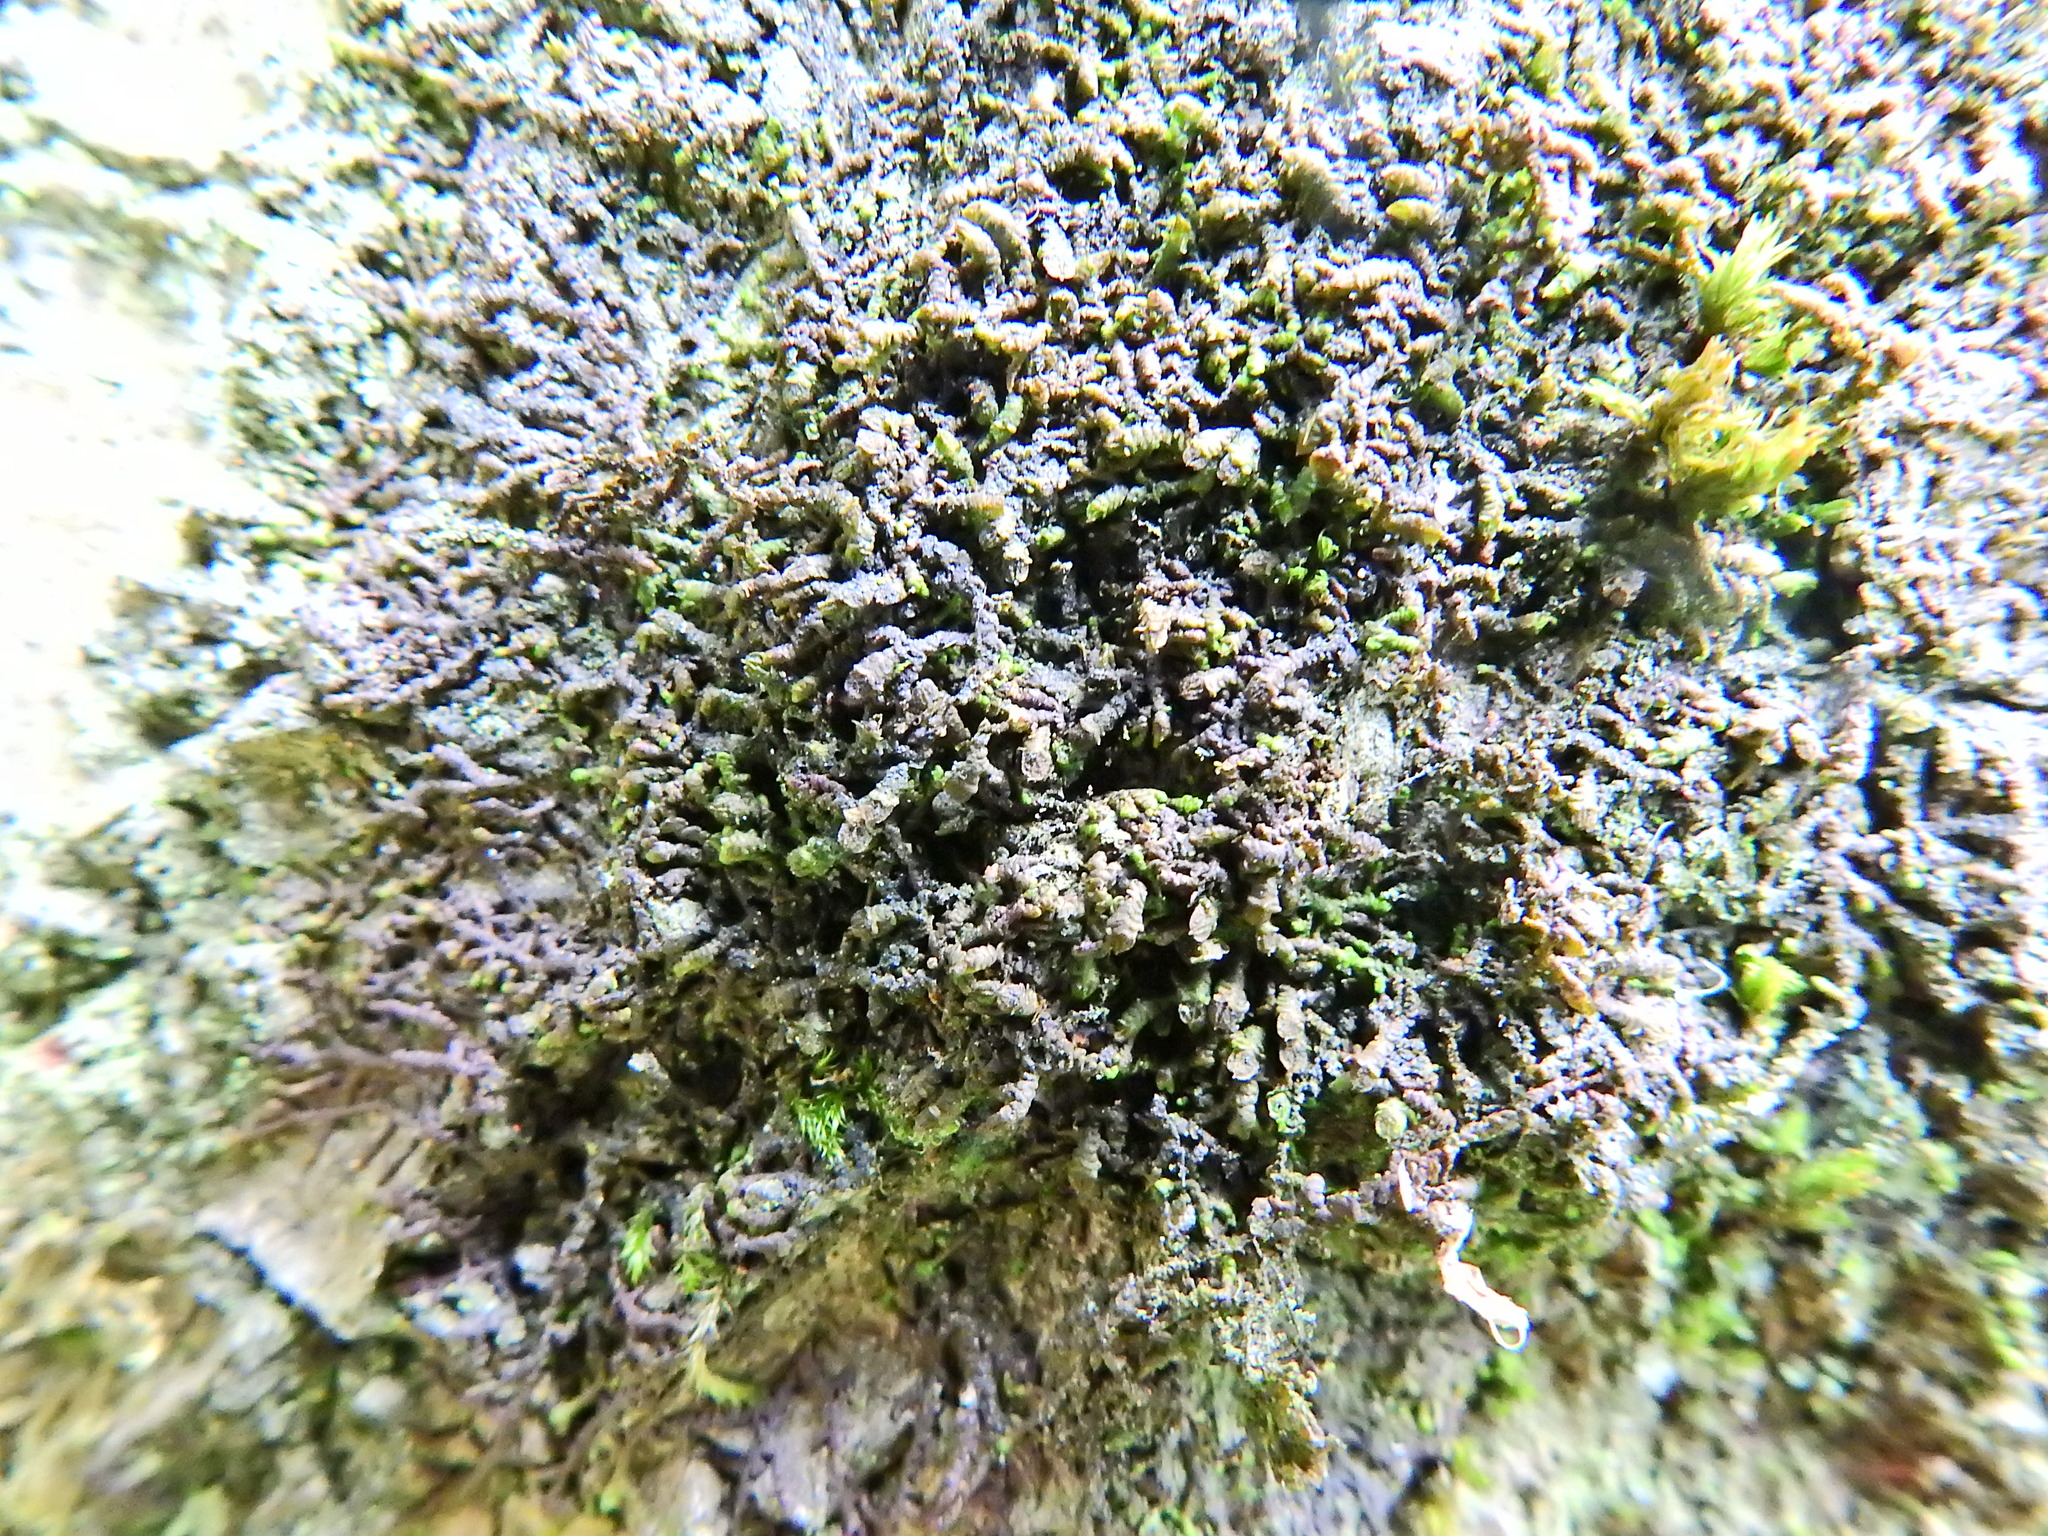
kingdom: Plantae
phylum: Marchantiophyta
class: Jungermanniopsida
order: Porellales
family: Frullaniaceae
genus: Frullania
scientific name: Frullania dilatata
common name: Dilated scalewort
